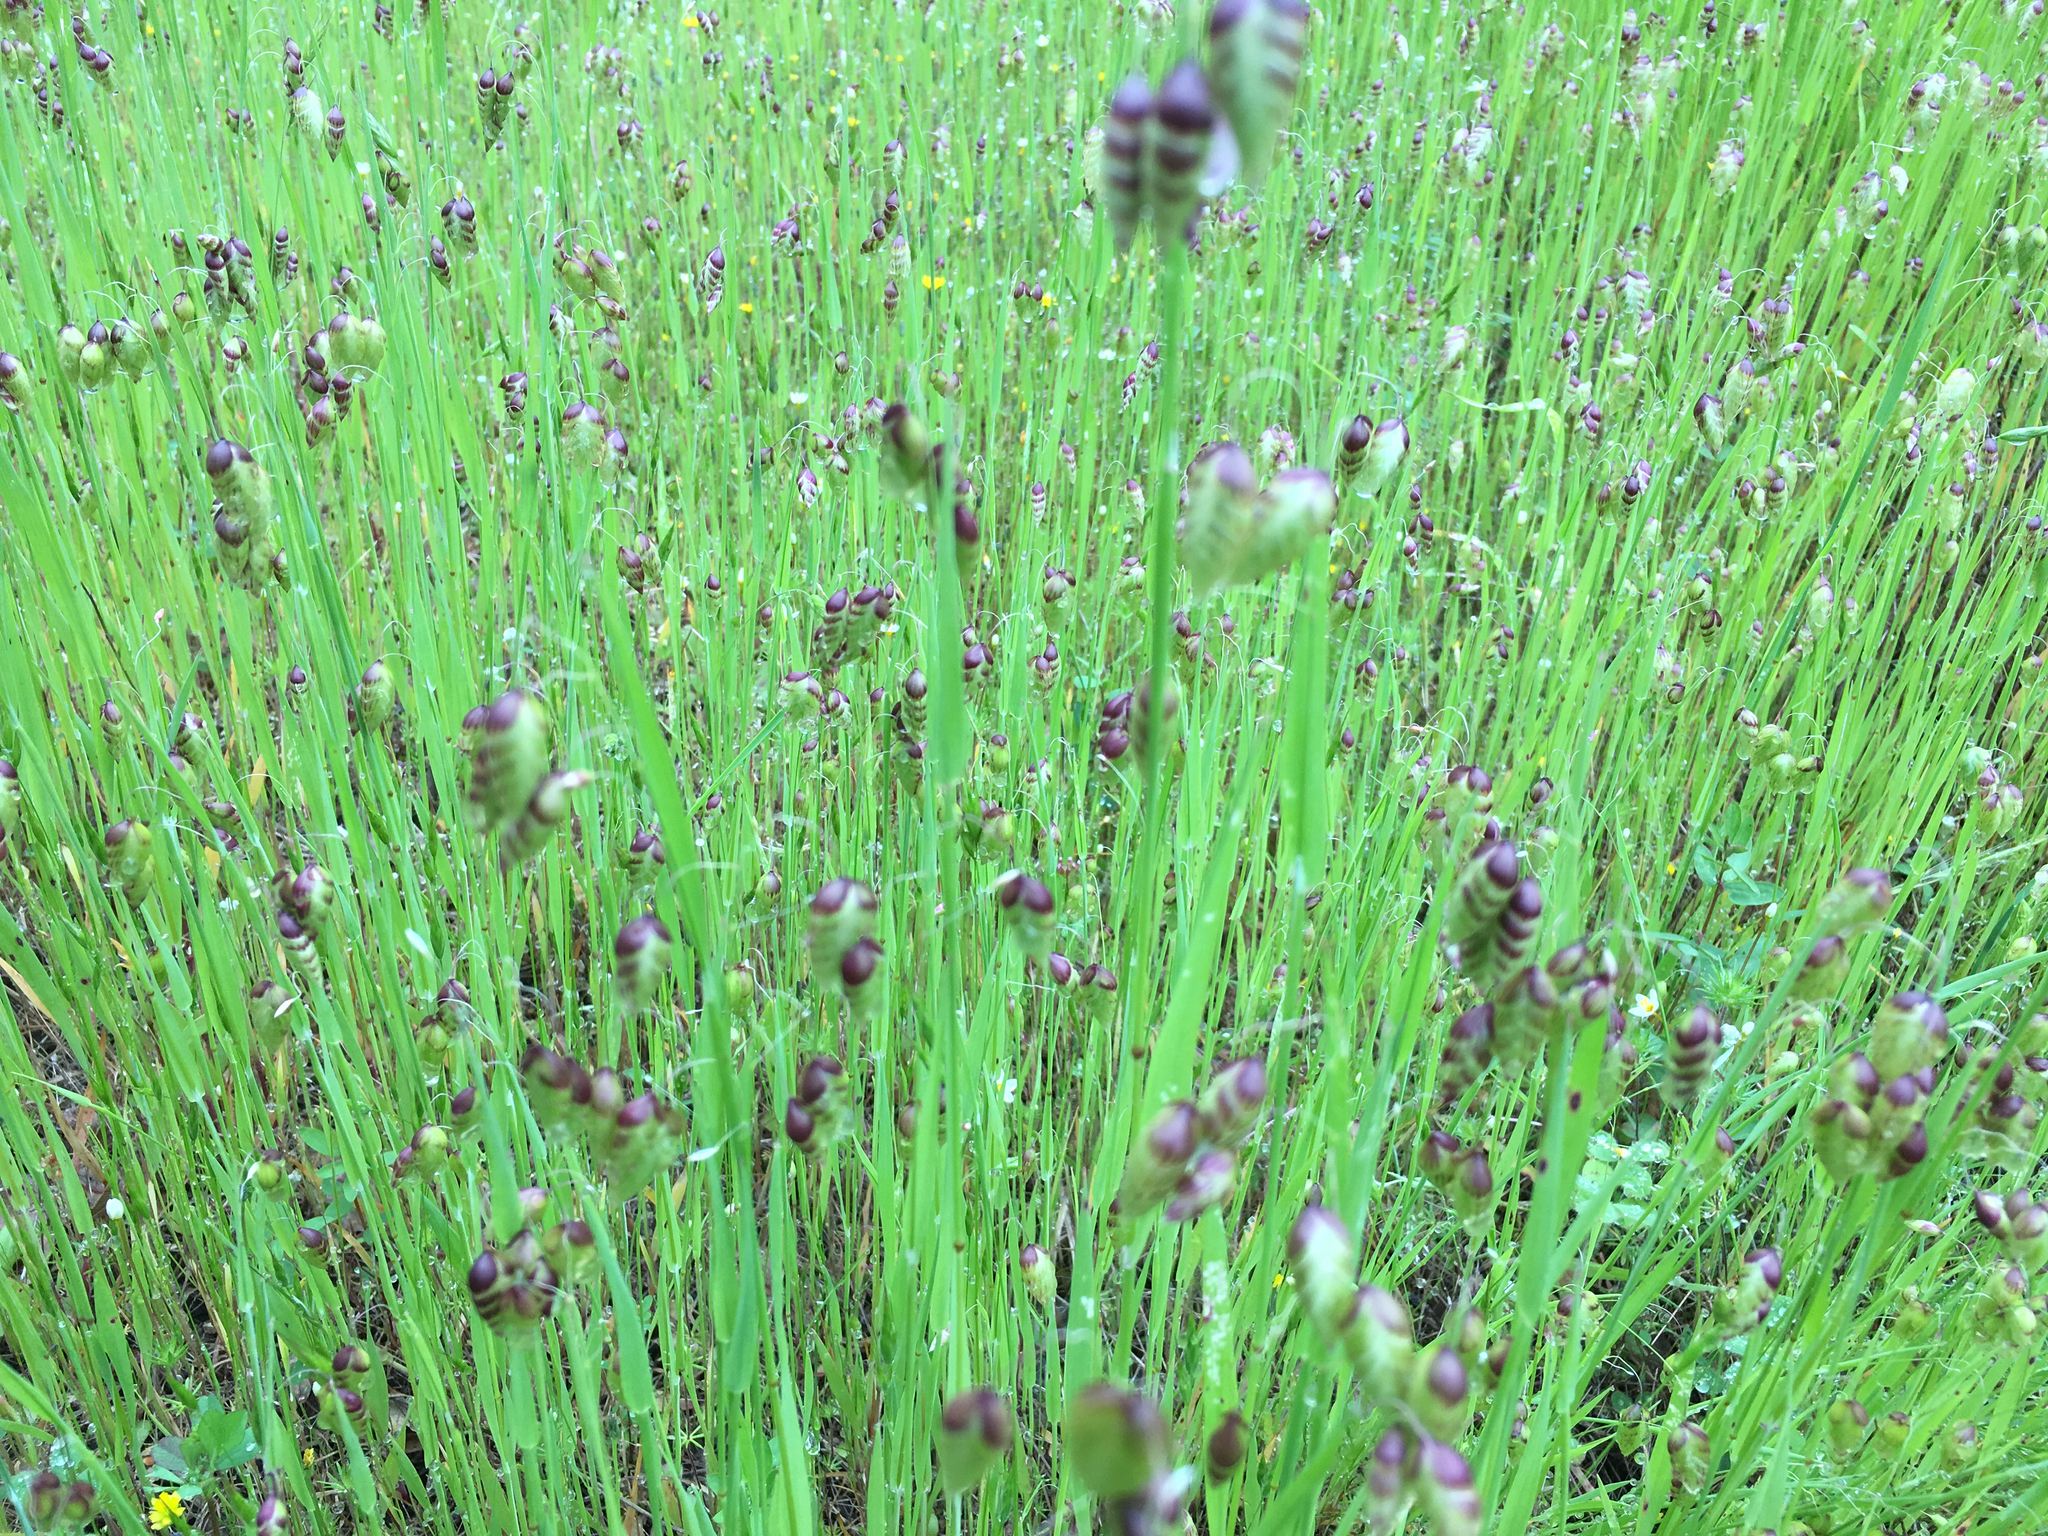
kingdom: Plantae
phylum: Tracheophyta
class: Liliopsida
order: Poales
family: Poaceae
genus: Briza
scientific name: Briza maxima
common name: Big quakinggrass
